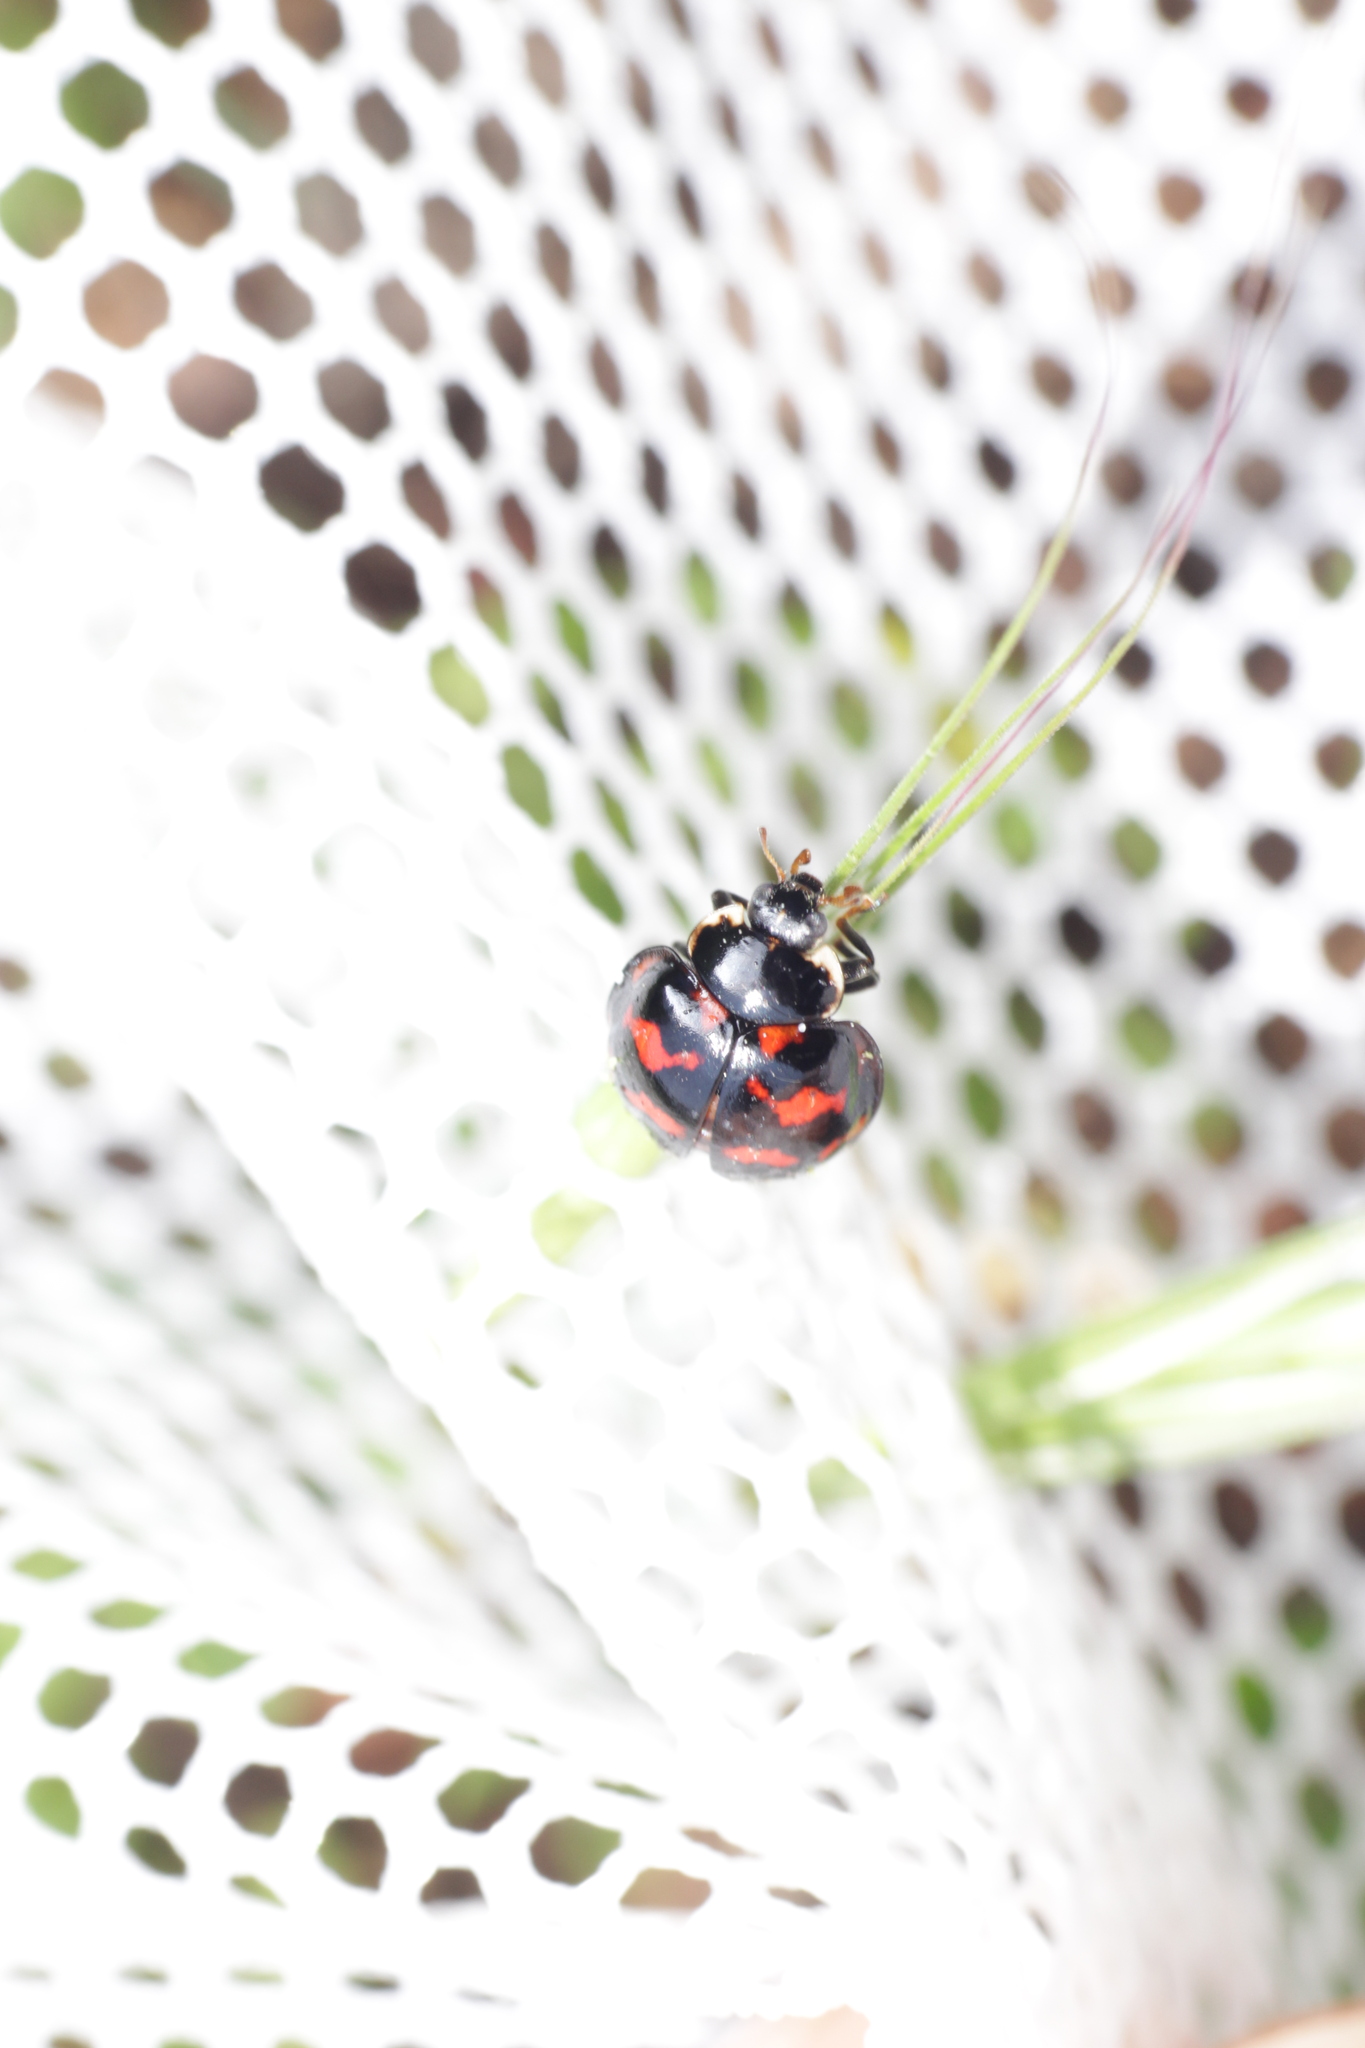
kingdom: Animalia
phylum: Arthropoda
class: Insecta
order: Coleoptera
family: Coccinellidae
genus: Harmonia
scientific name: Harmonia axyridis
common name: Harlequin ladybird
